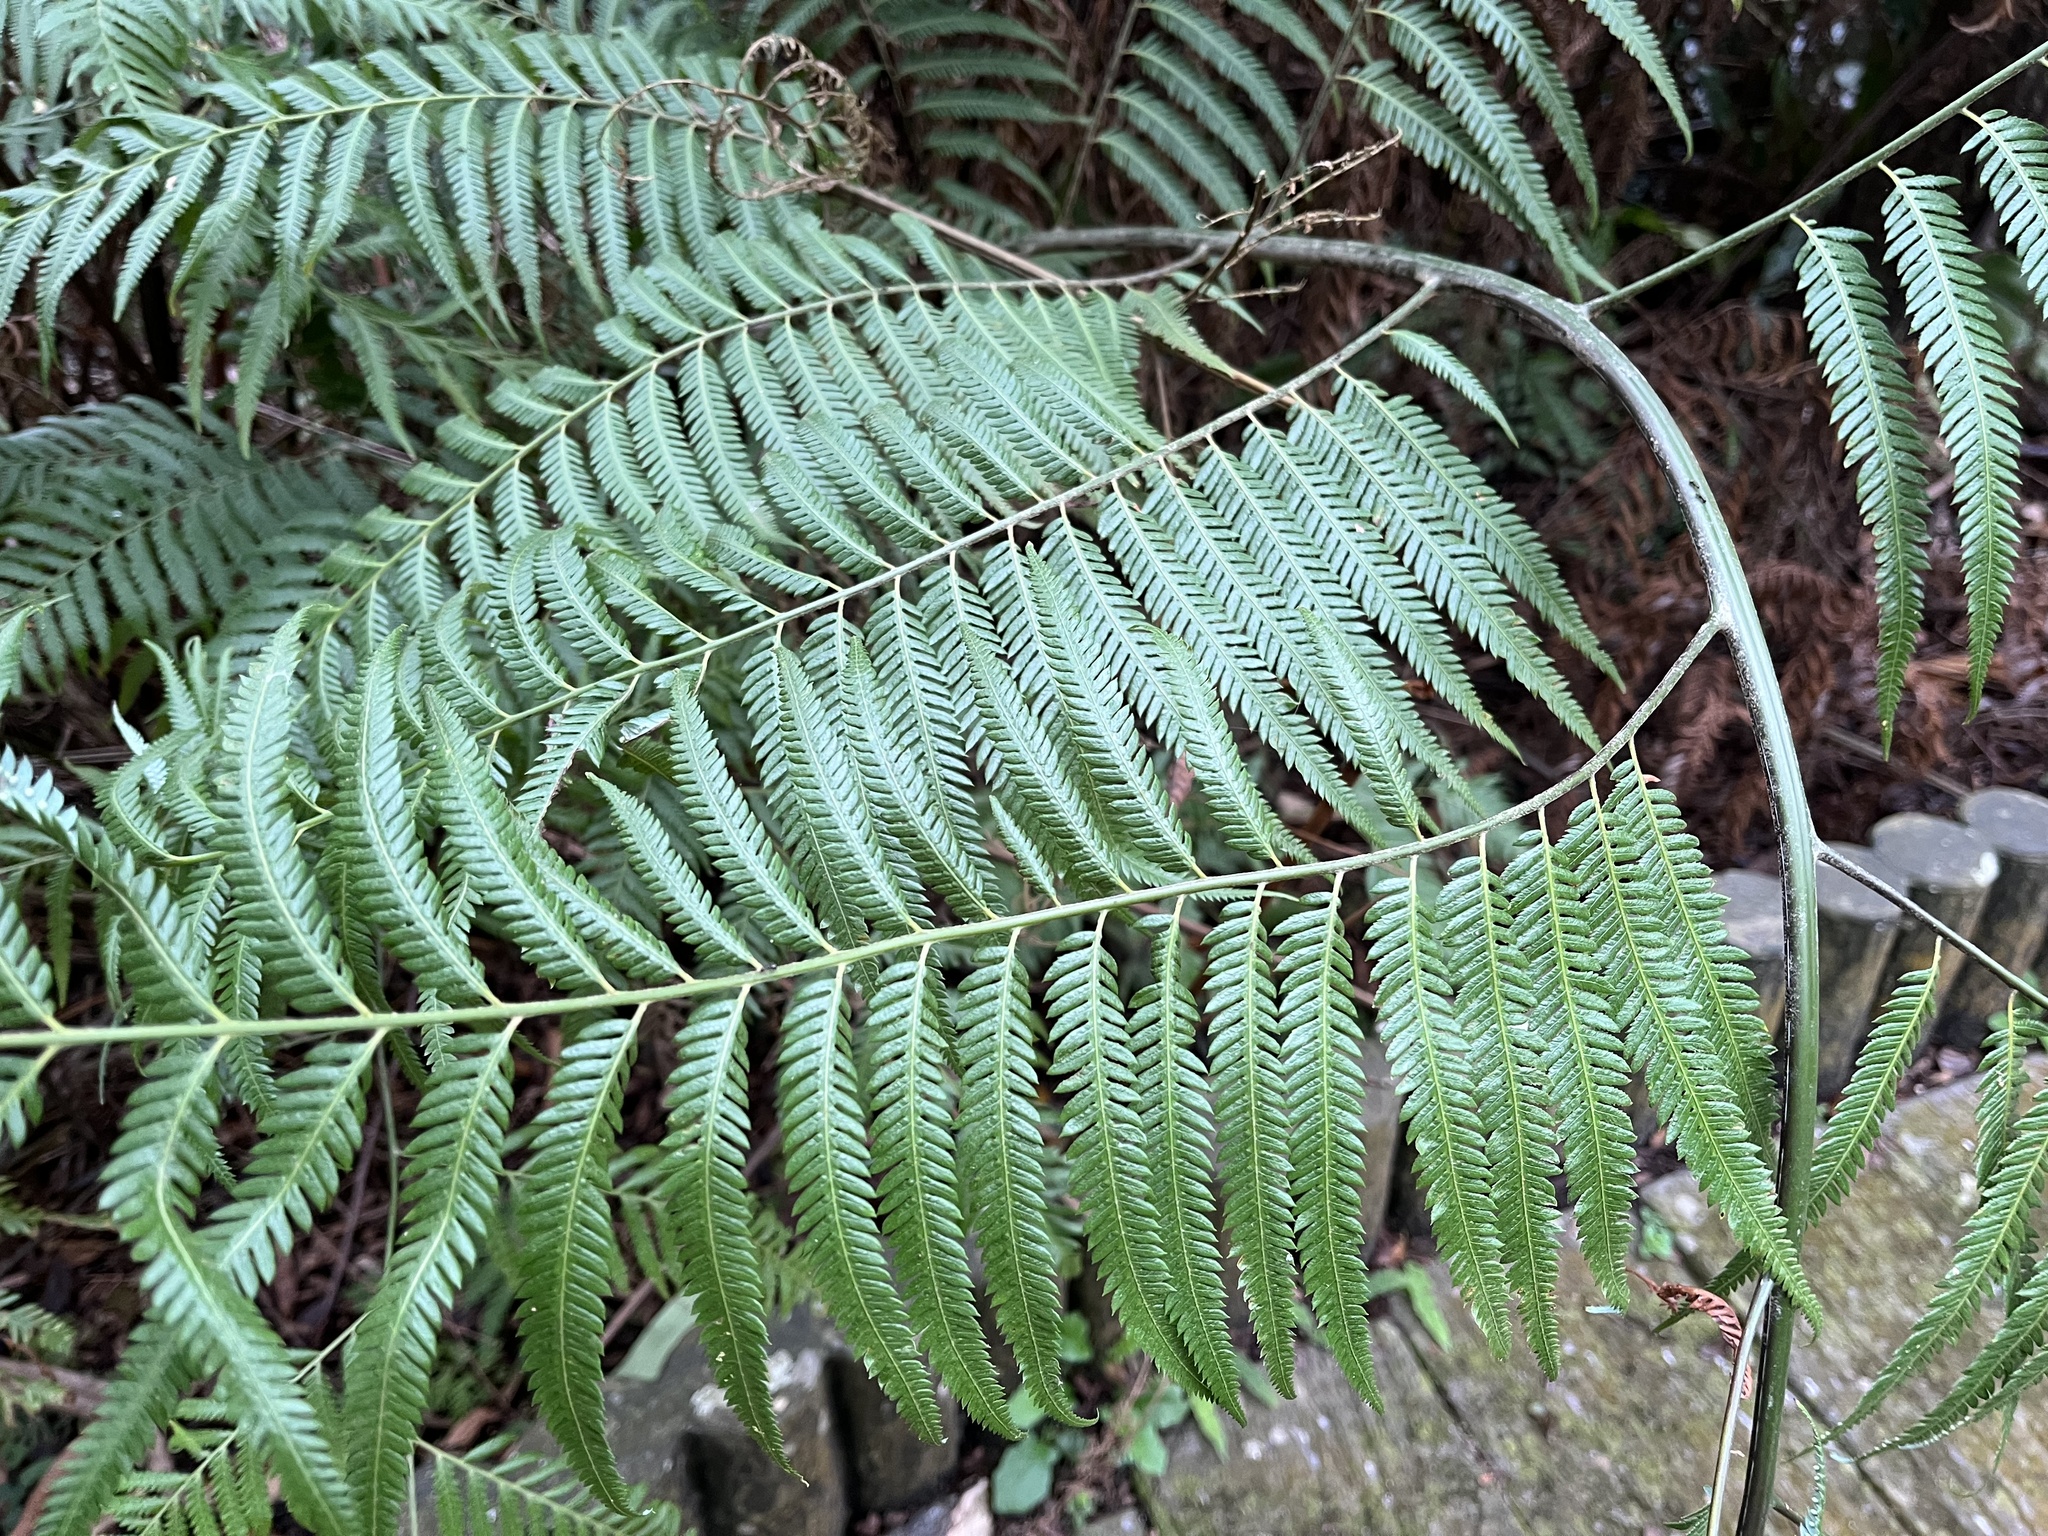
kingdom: Plantae
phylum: Tracheophyta
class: Polypodiopsida
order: Cyatheales
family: Cibotiaceae
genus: Cibotium
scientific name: Cibotium taiwanense
